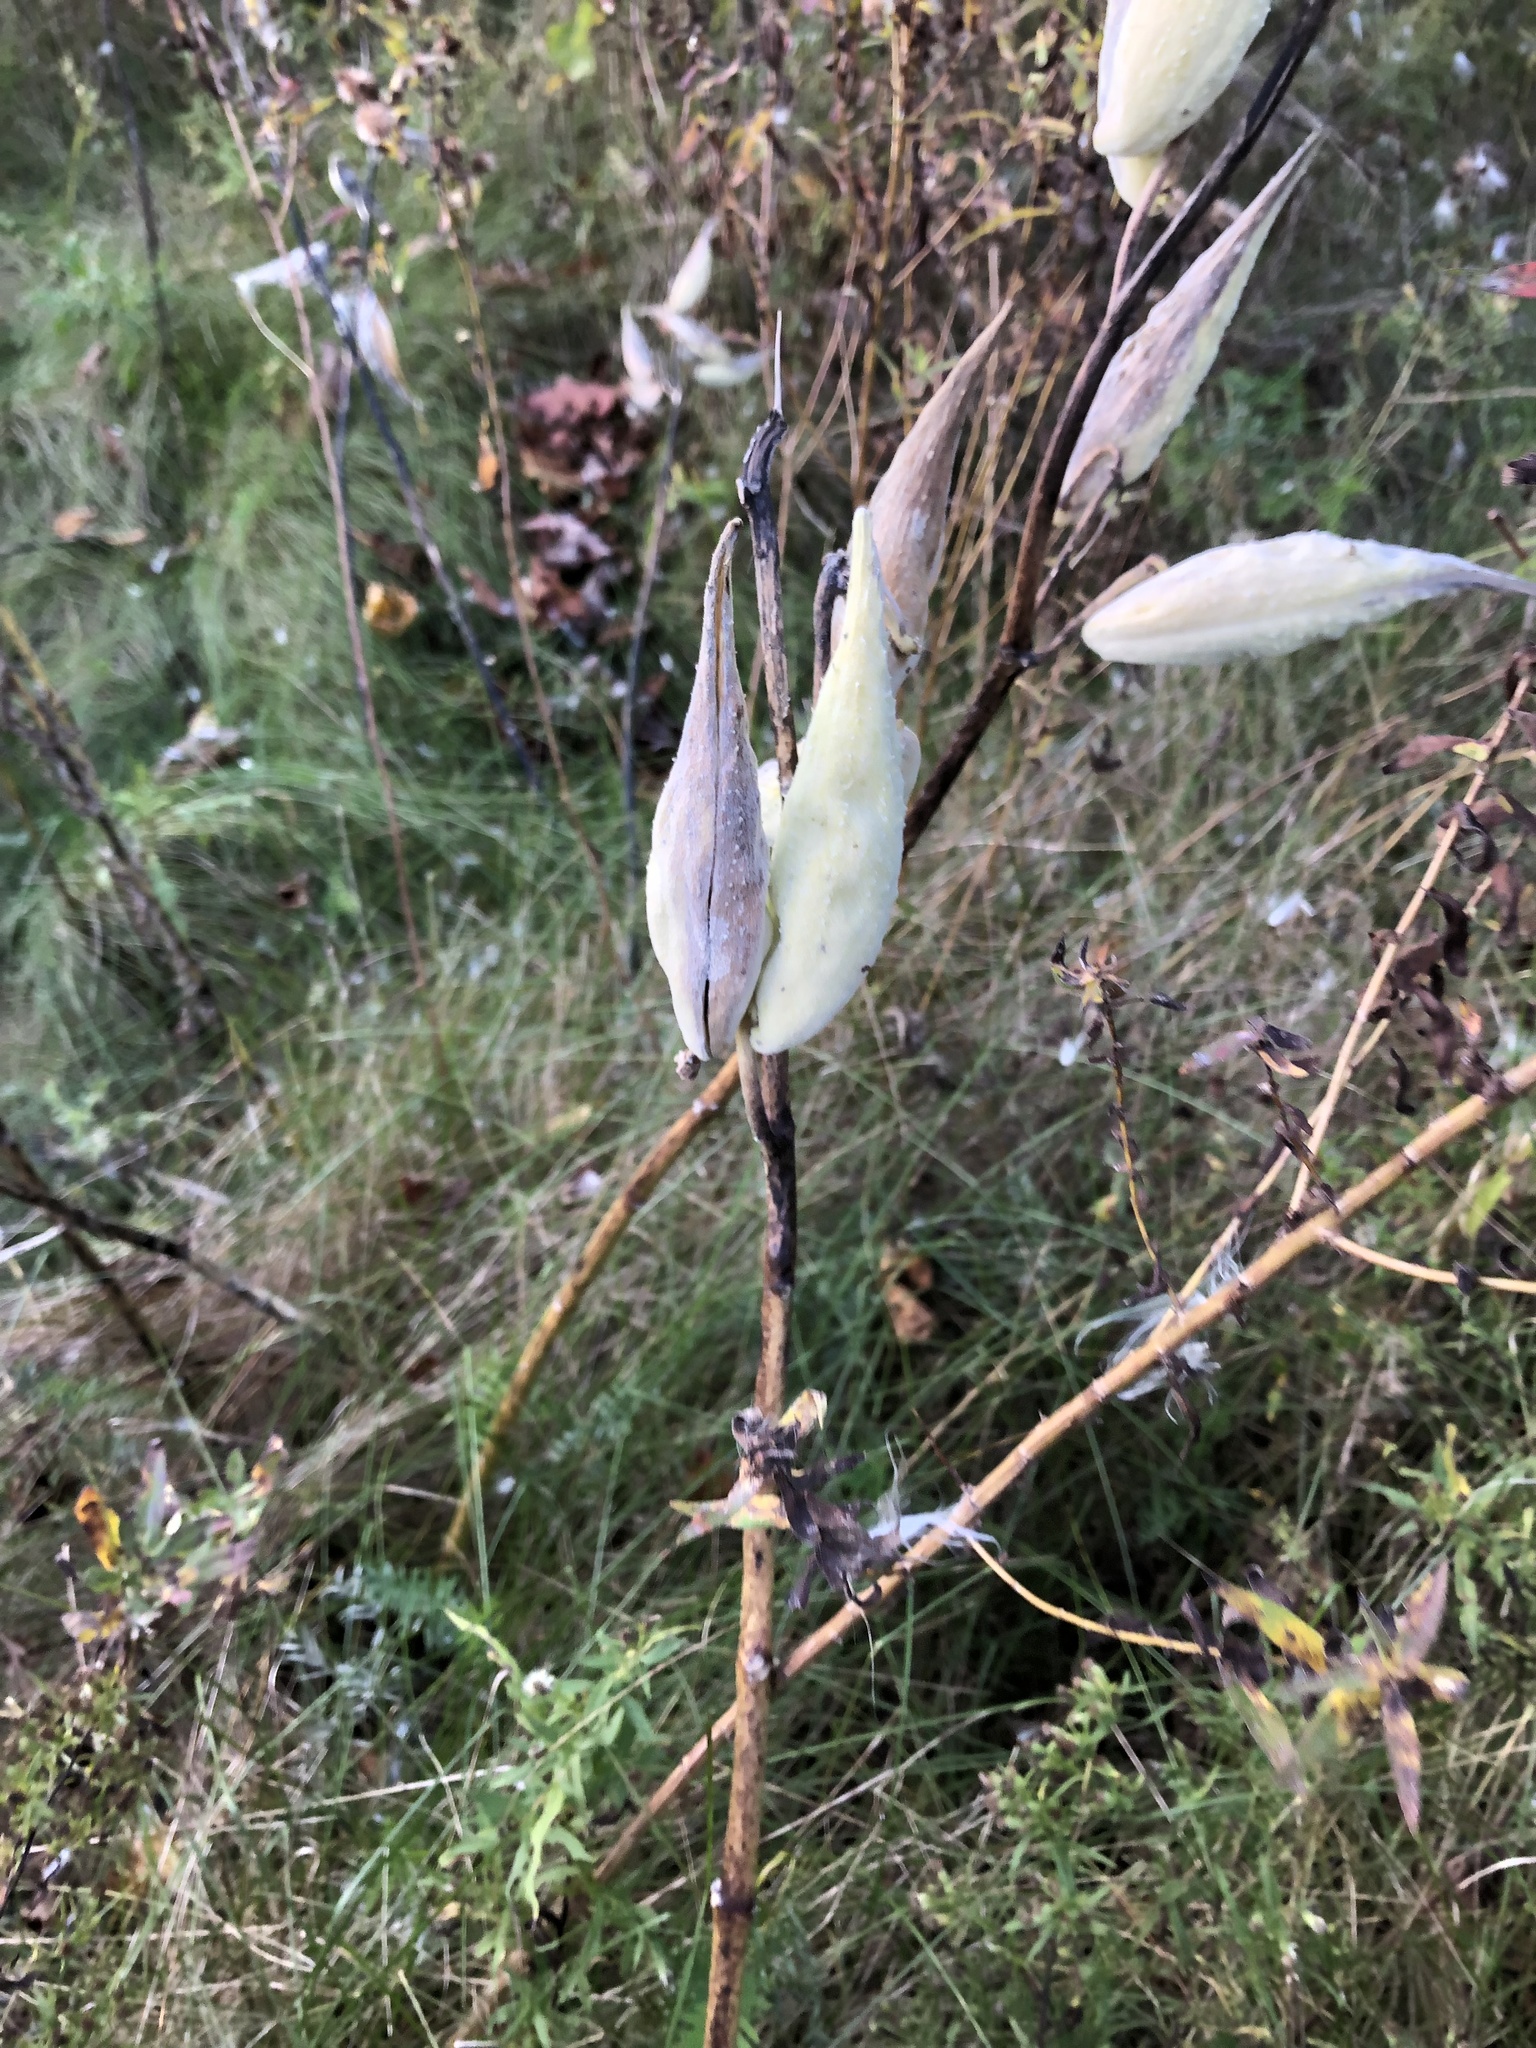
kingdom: Plantae
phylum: Tracheophyta
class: Magnoliopsida
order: Gentianales
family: Apocynaceae
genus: Asclepias
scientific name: Asclepias syriaca
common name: Common milkweed
